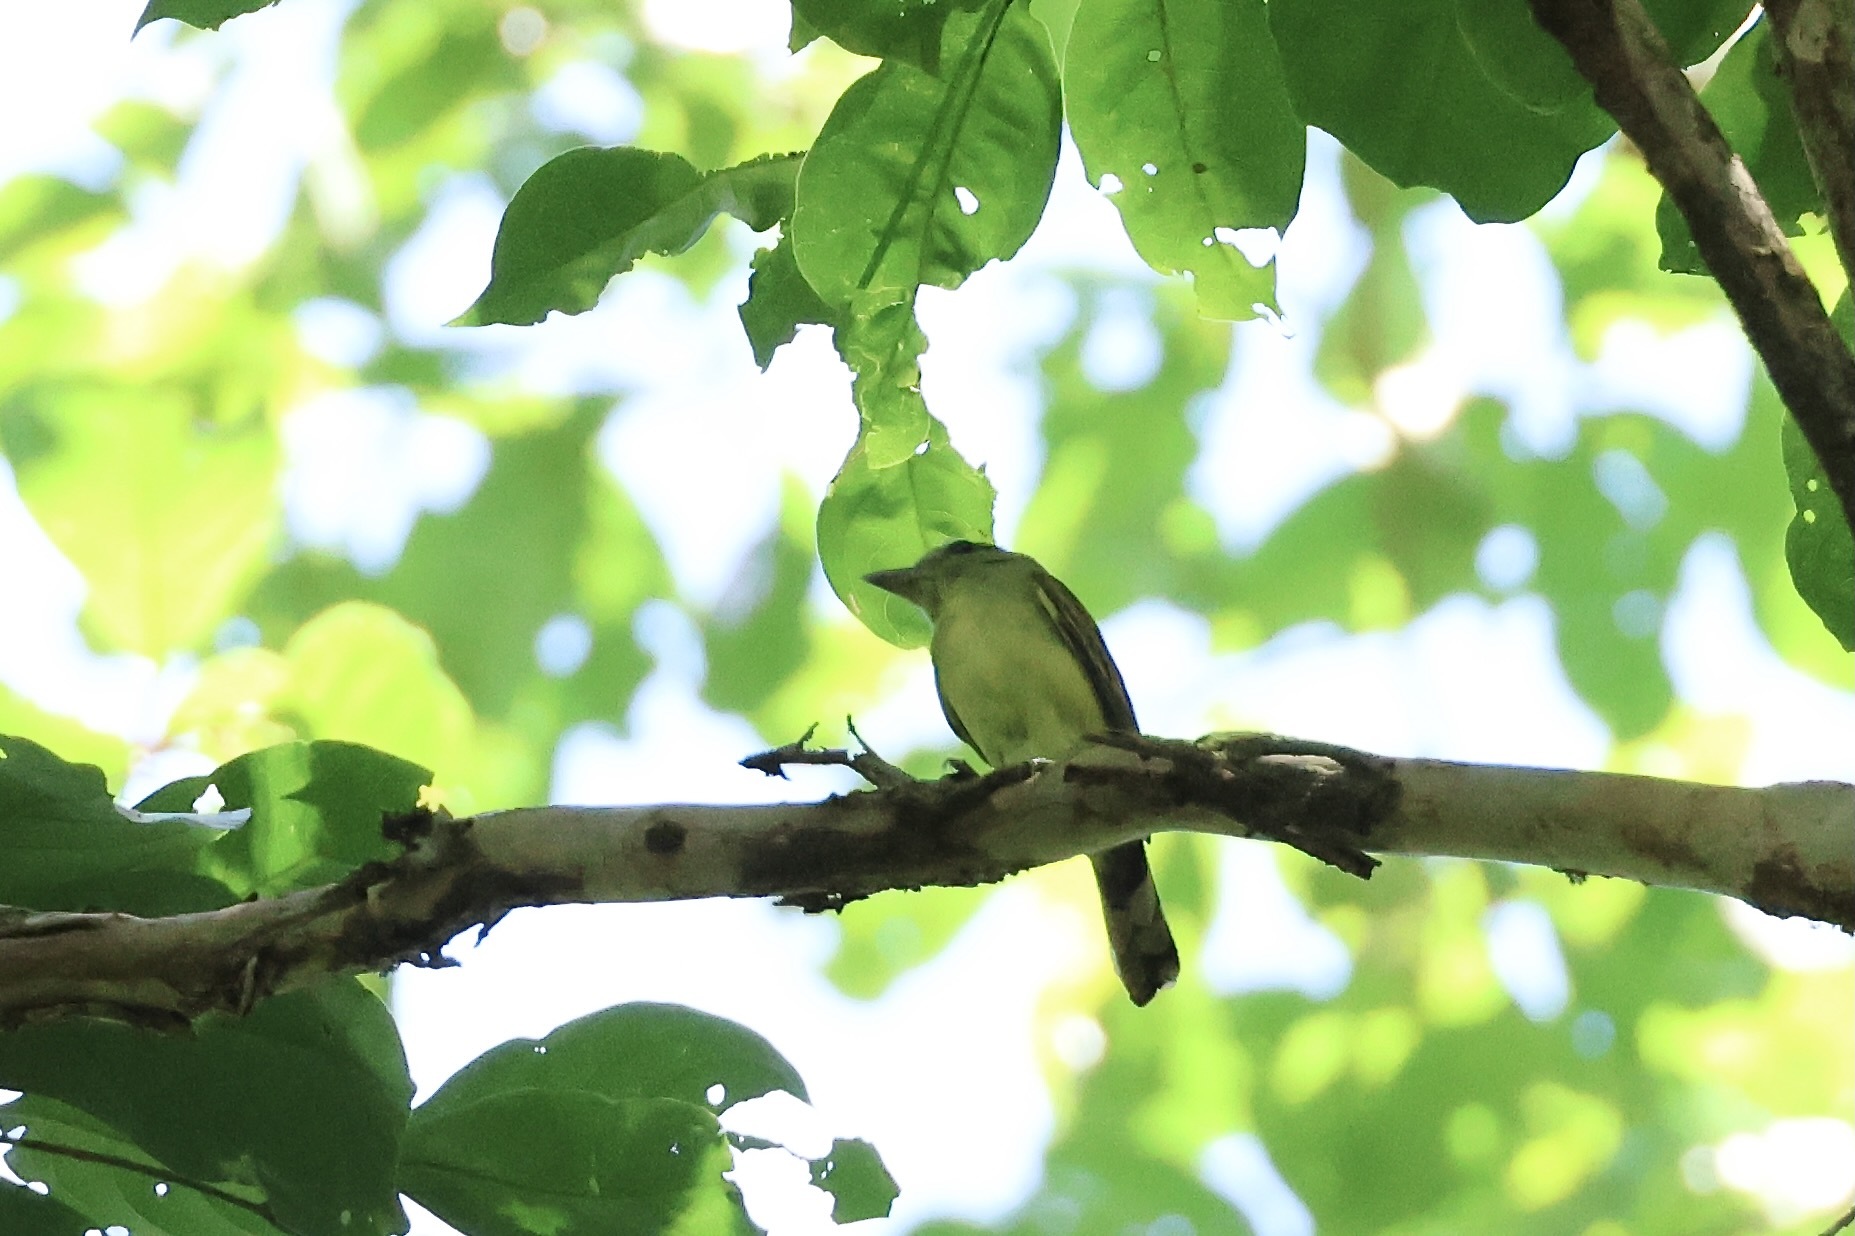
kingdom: Animalia
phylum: Chordata
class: Aves
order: Passeriformes
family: Cotingidae
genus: Pachyramphus
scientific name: Pachyramphus polychopterus
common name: White-winged becard
